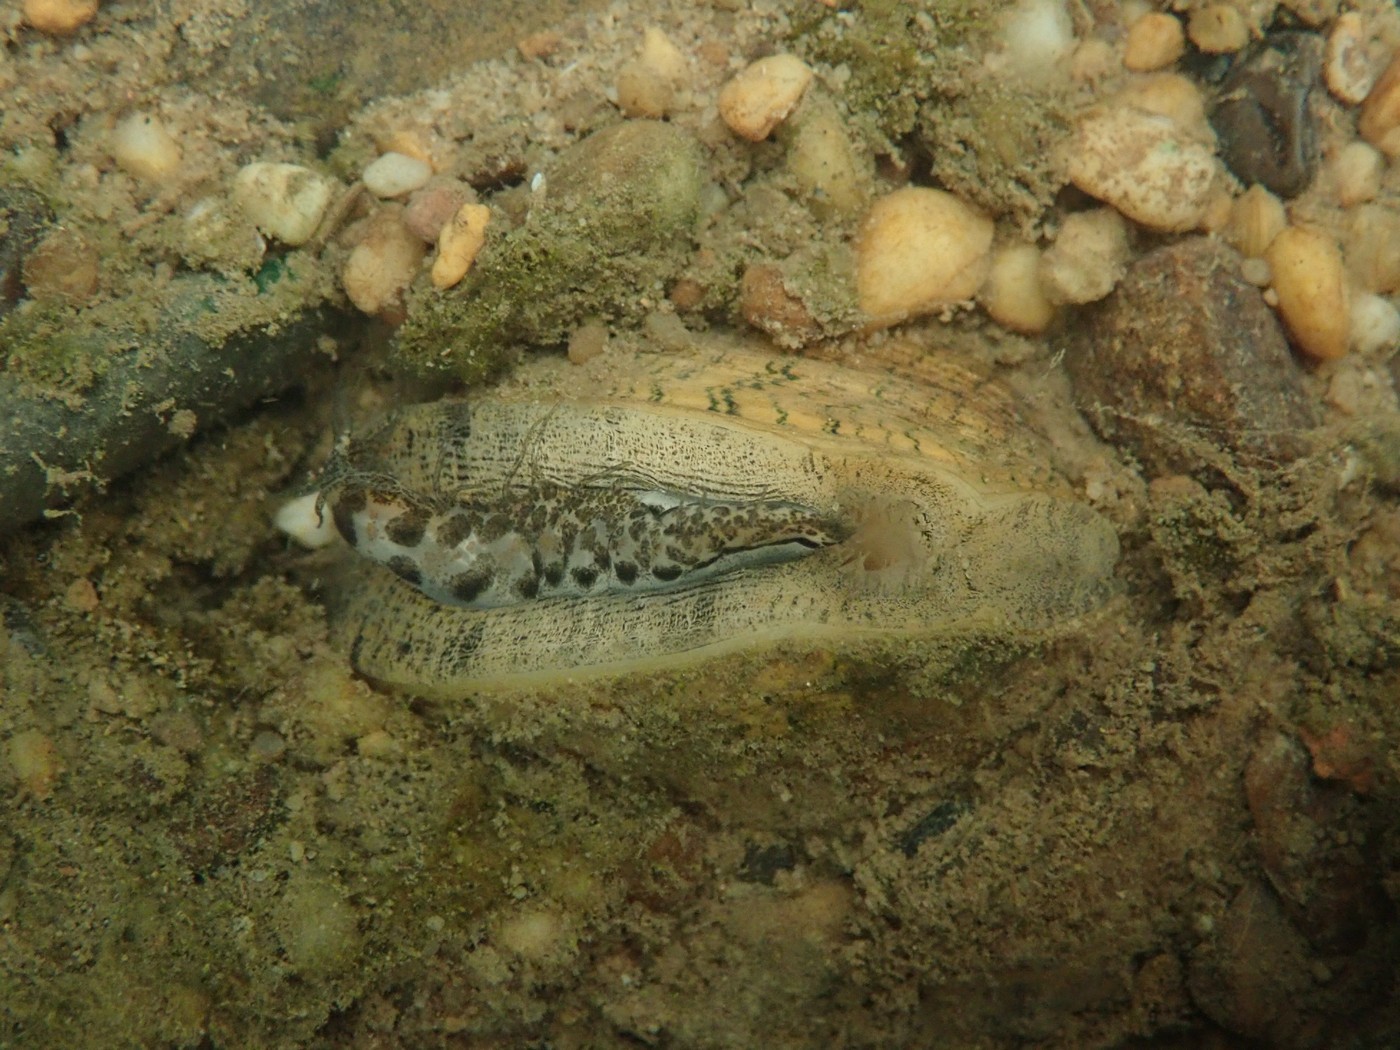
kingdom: Animalia
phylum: Mollusca
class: Bivalvia
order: Unionida
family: Unionidae
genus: Lampsilis
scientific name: Lampsilis fasciola
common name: Wavyrayed lampmussel
